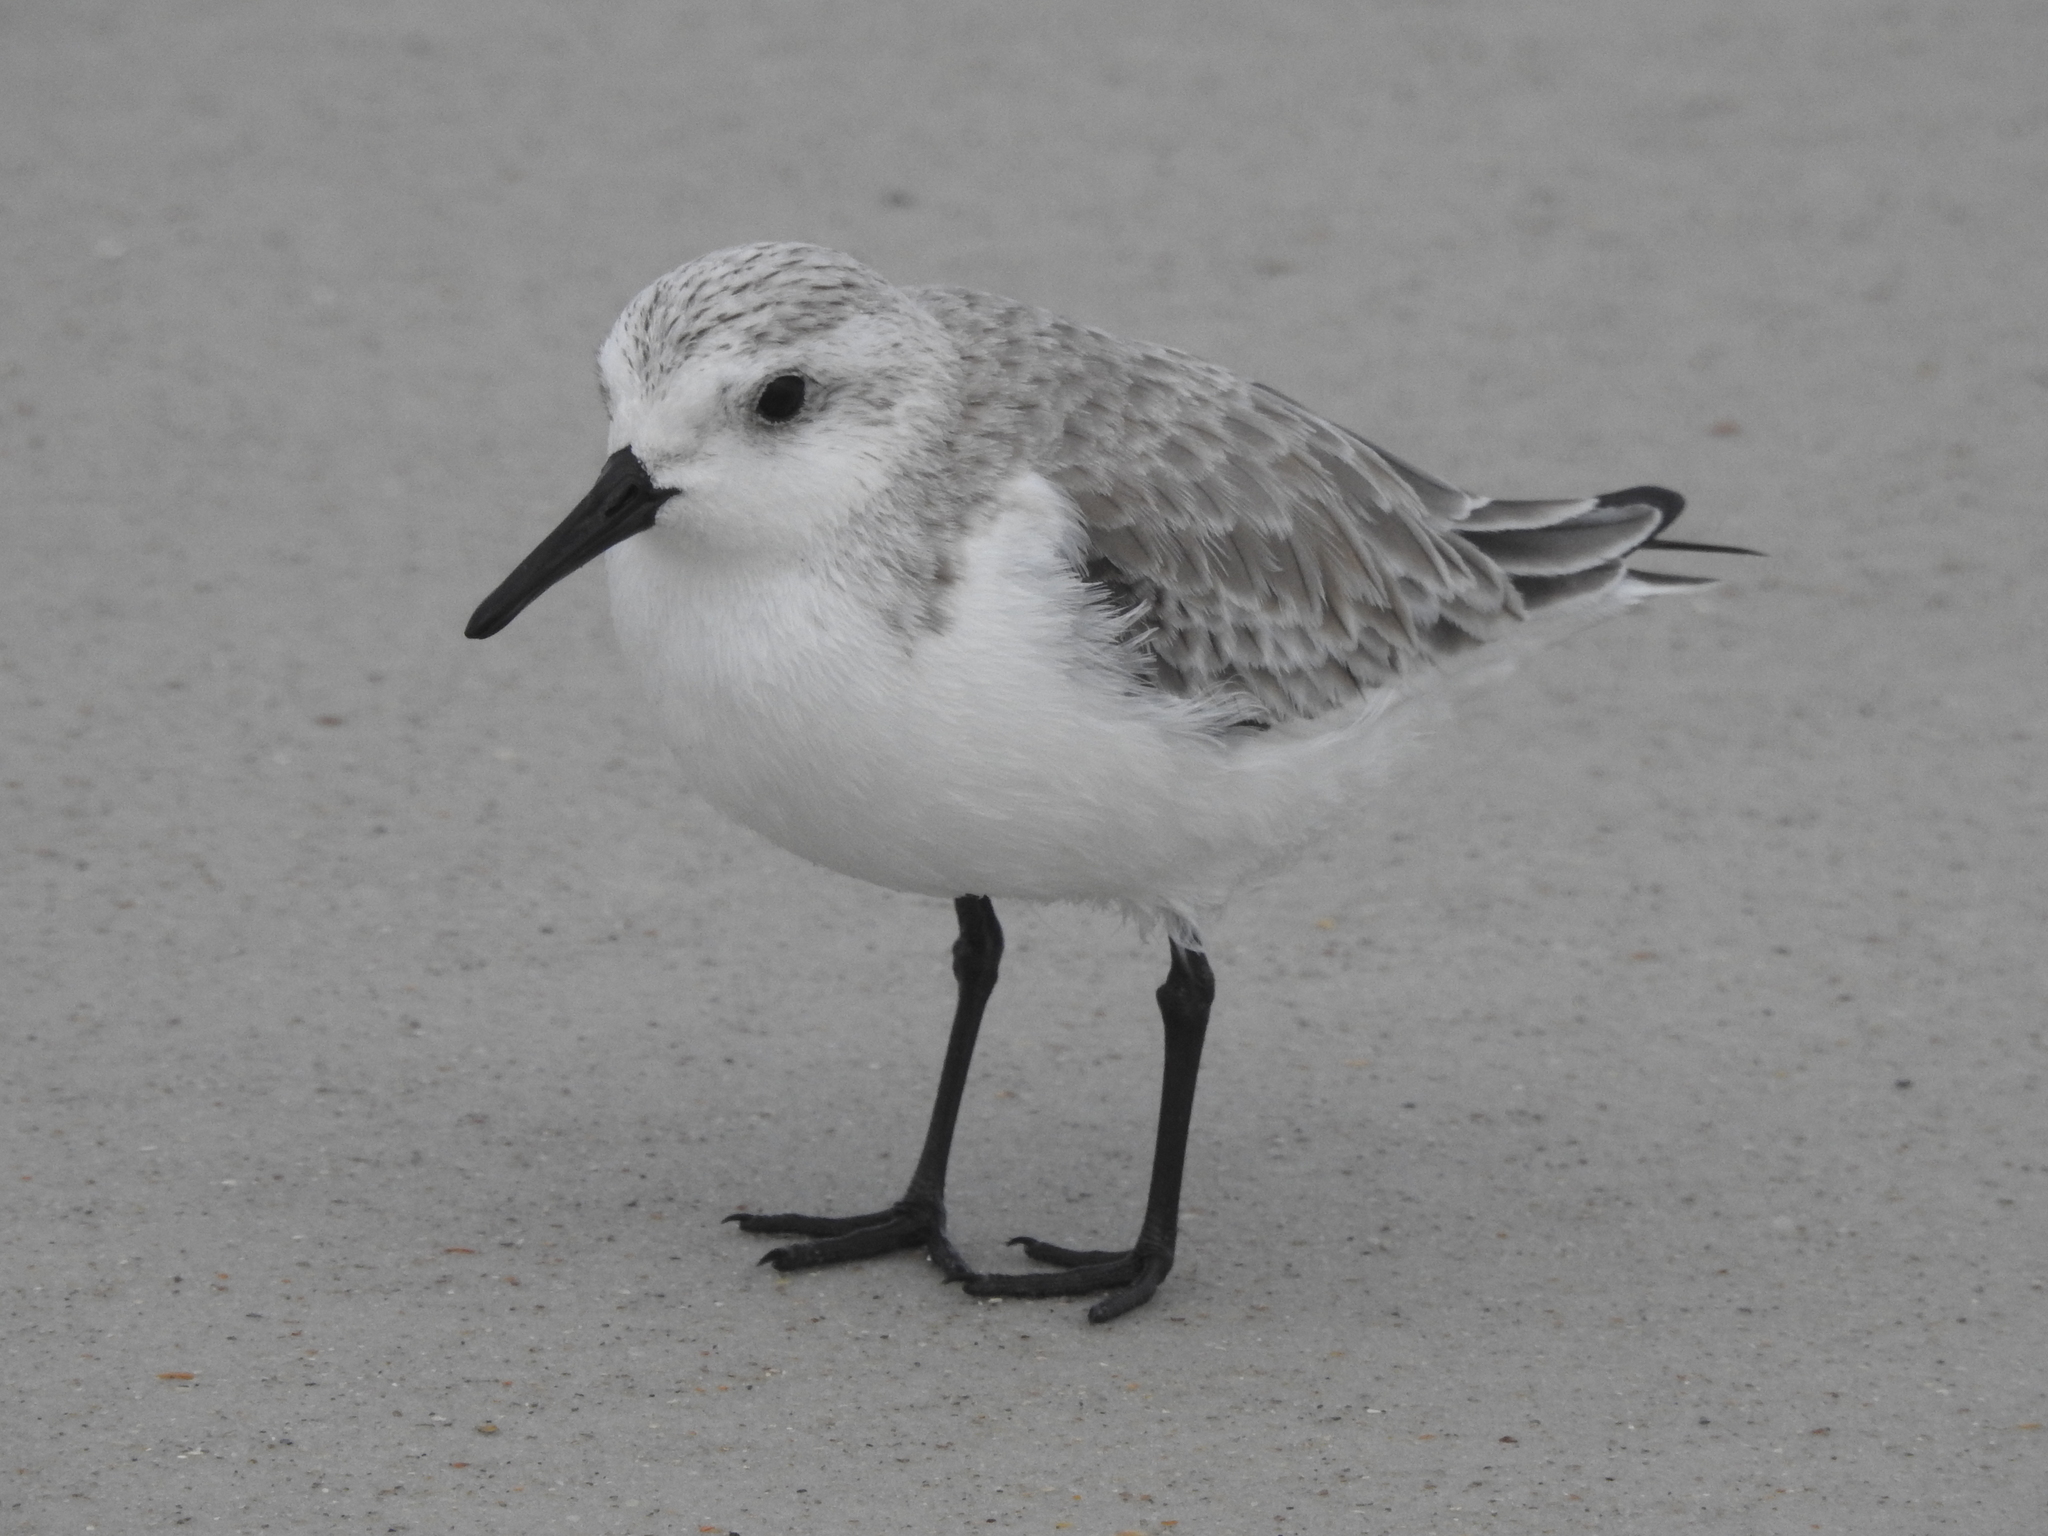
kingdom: Animalia
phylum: Chordata
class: Aves
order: Charadriiformes
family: Scolopacidae
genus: Calidris
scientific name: Calidris alba
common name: Sanderling
